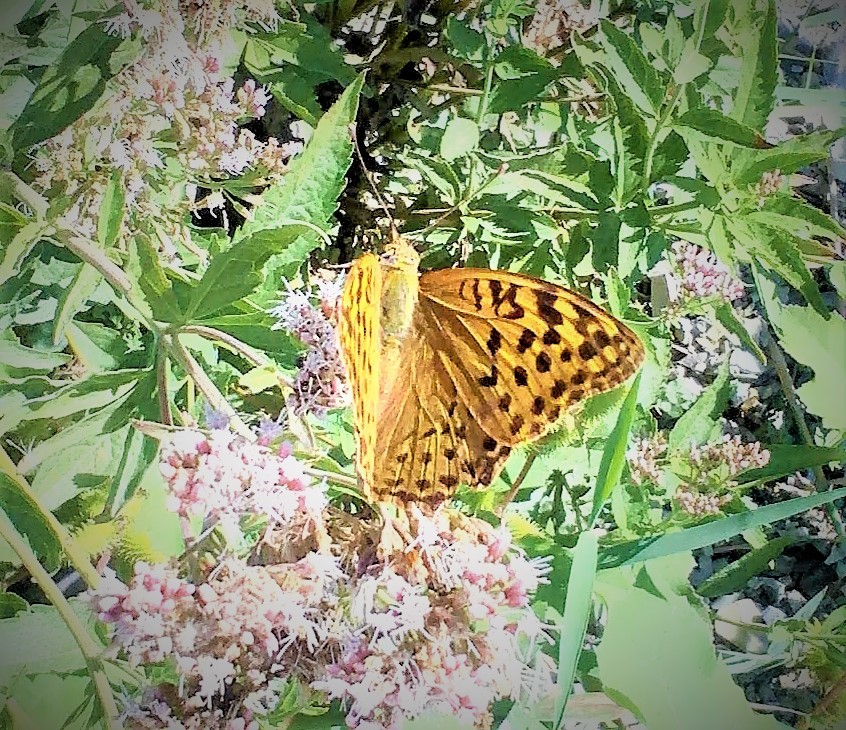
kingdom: Animalia
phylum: Arthropoda
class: Insecta
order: Lepidoptera
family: Nymphalidae
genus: Damora
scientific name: Damora pandora
